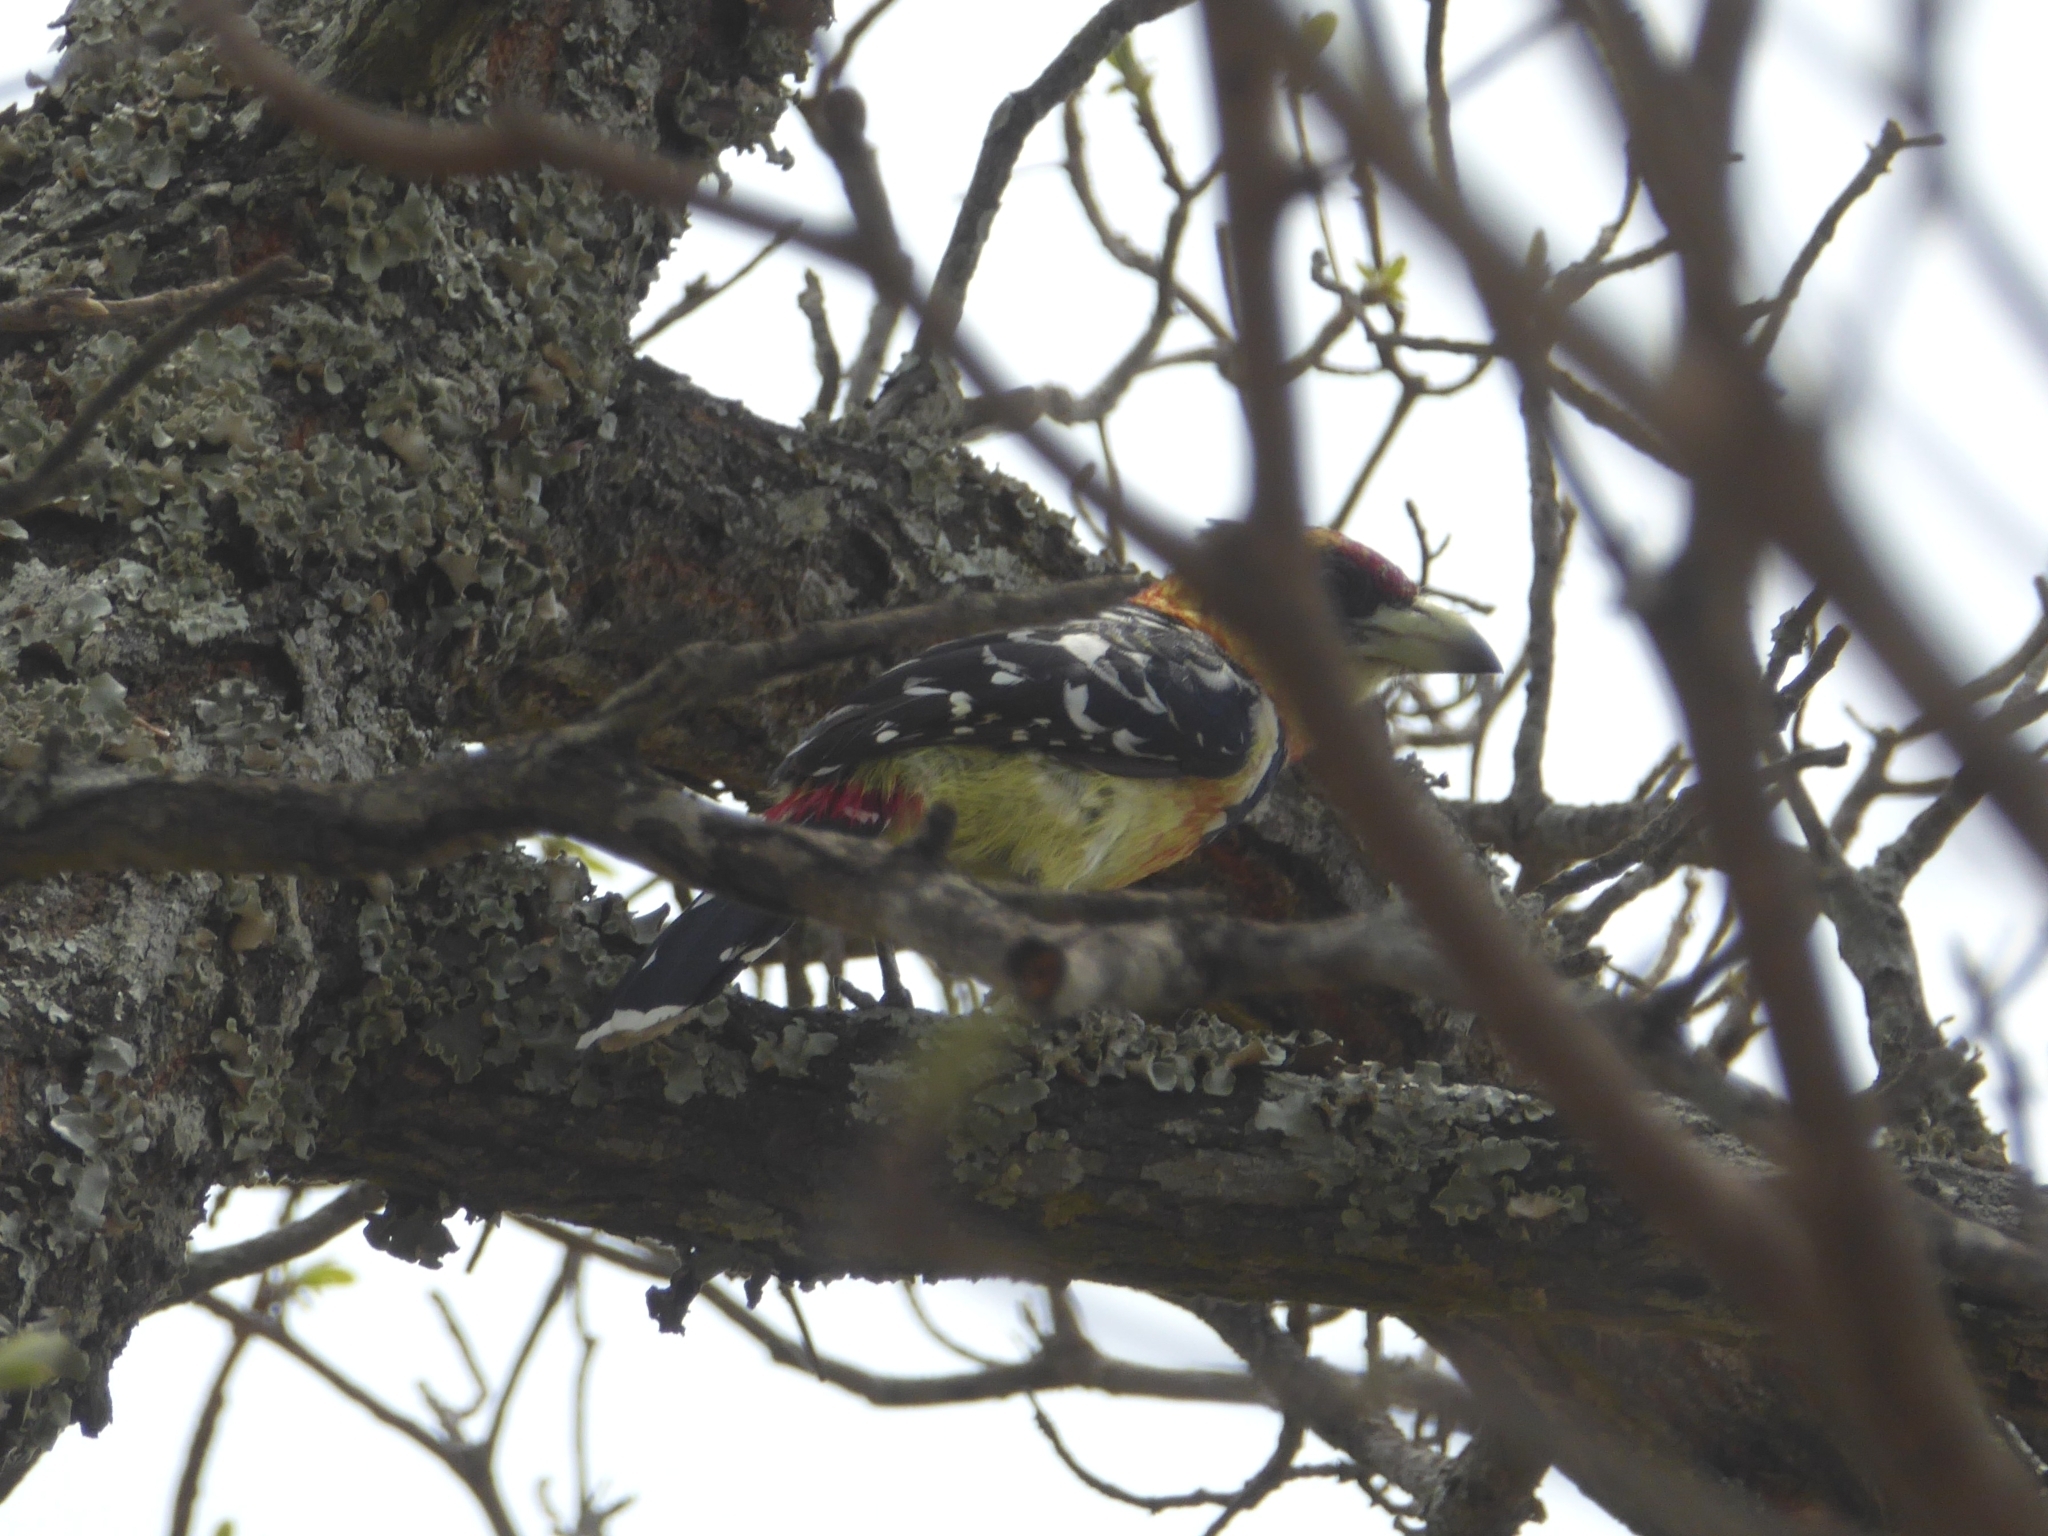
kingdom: Animalia
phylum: Chordata
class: Aves
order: Piciformes
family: Lybiidae
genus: Trachyphonus
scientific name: Trachyphonus vaillantii
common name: Crested barbet
